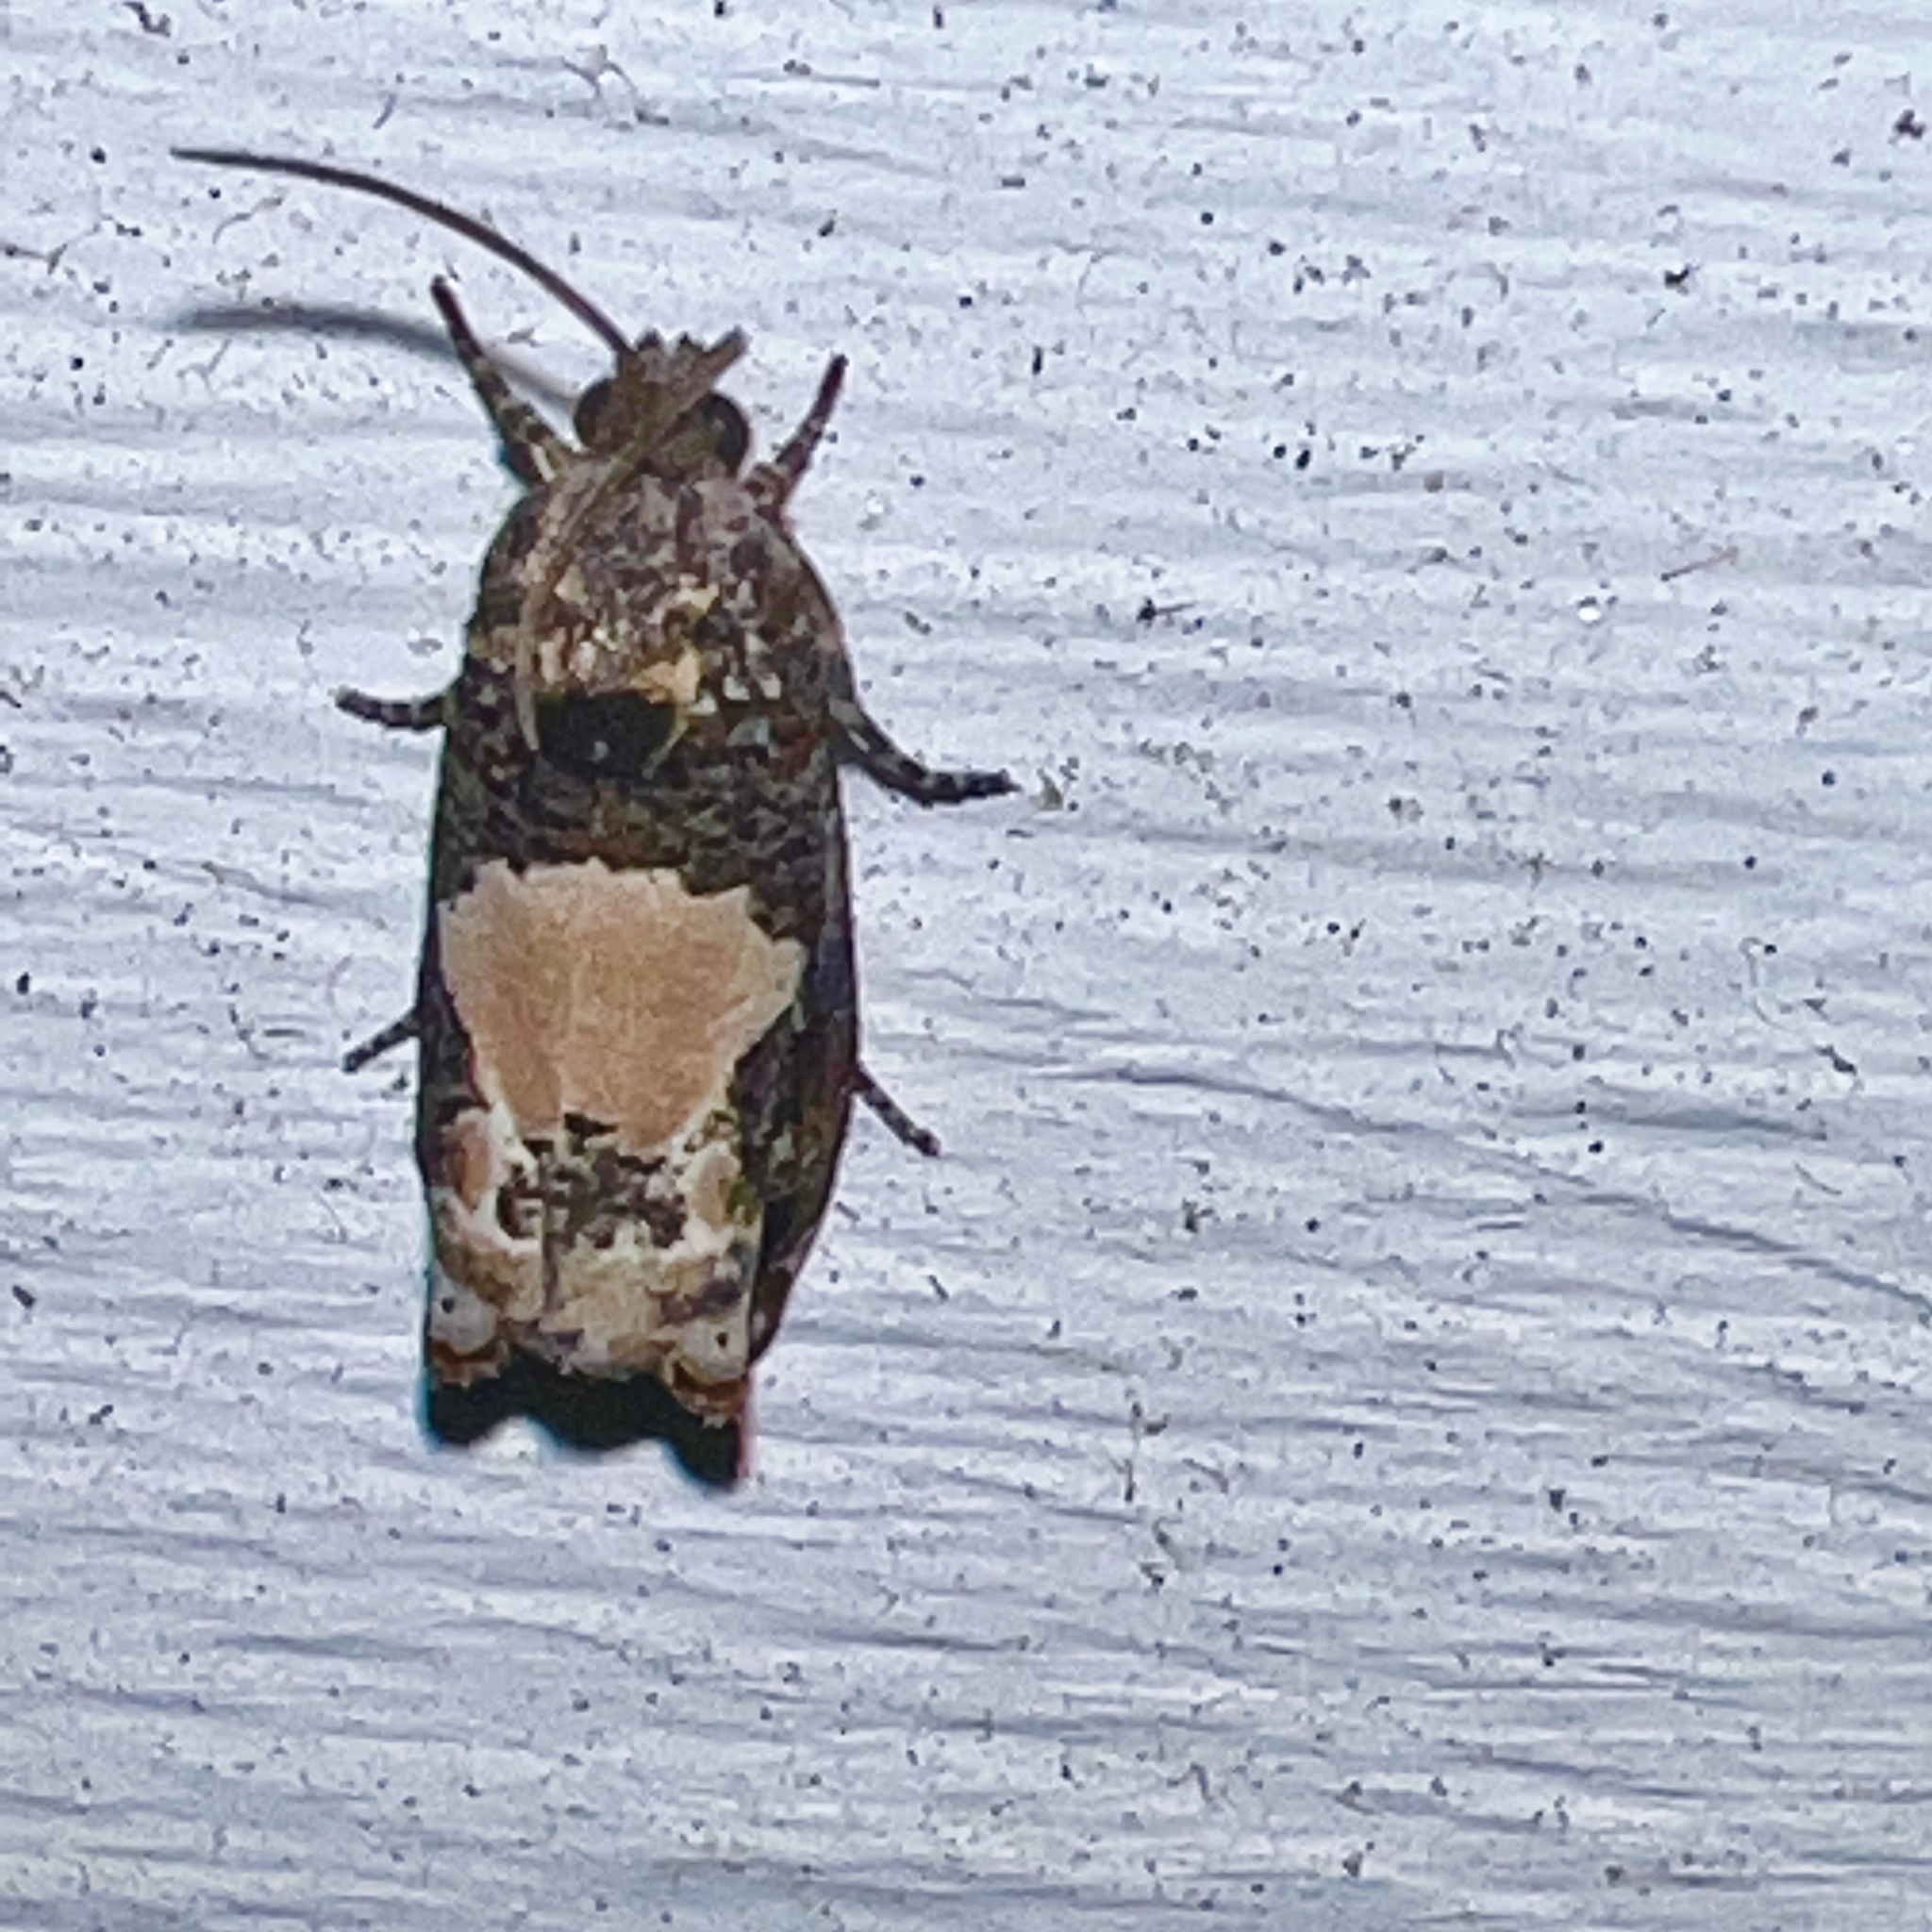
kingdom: Animalia
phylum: Arthropoda
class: Insecta
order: Lepidoptera
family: Tortricidae
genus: Epiblema
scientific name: Epiblema glenni
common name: Glenn's epiblema
